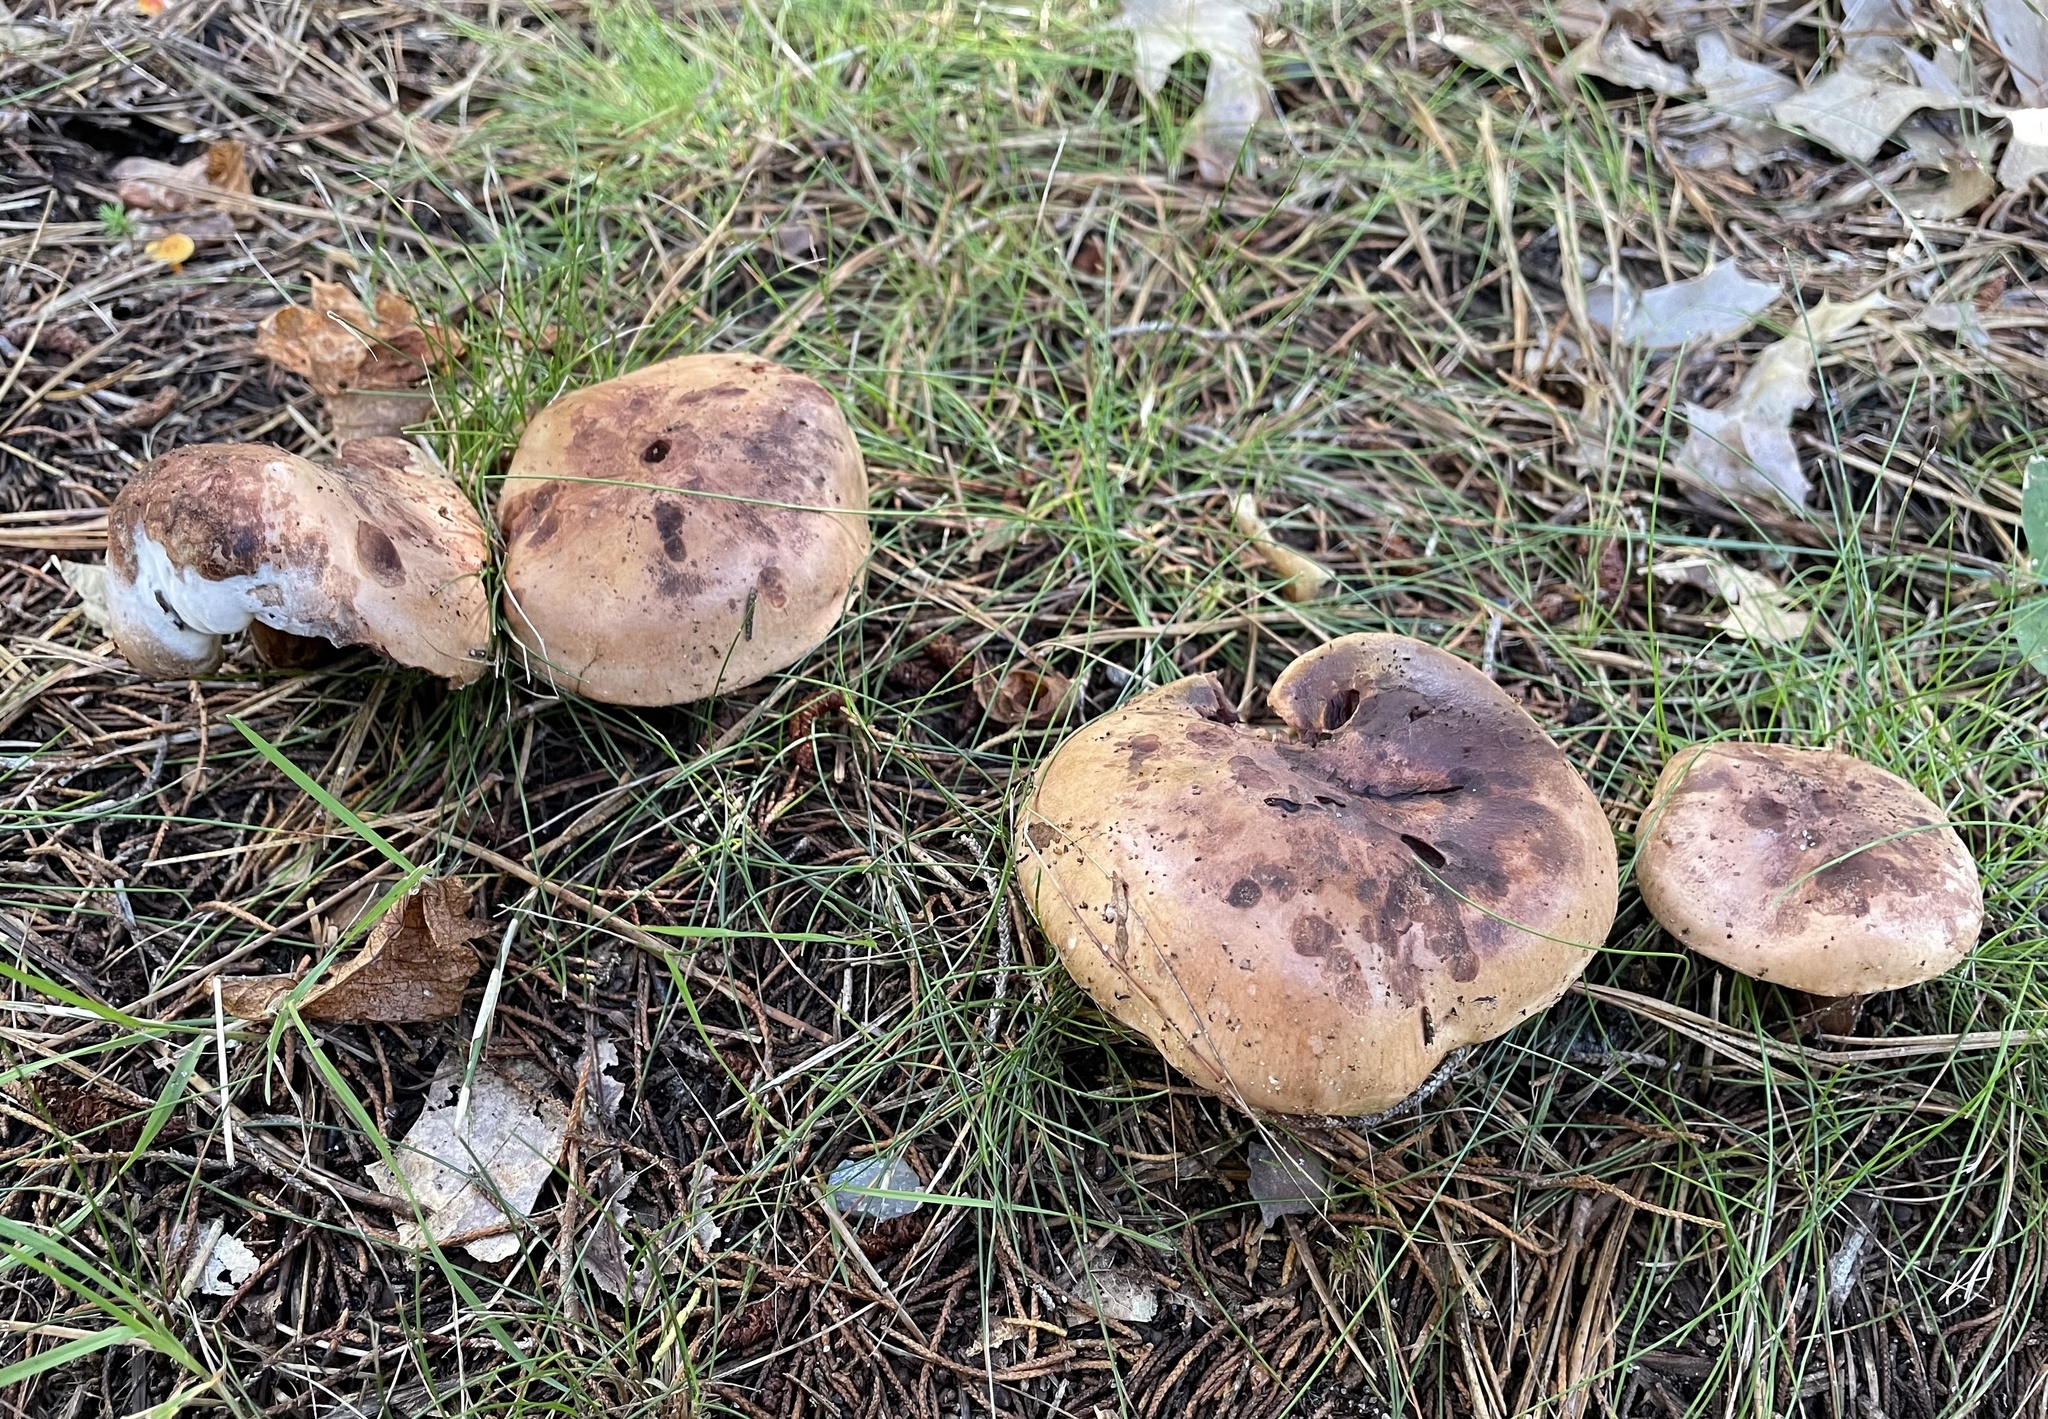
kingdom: Fungi
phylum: Basidiomycota
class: Agaricomycetes
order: Agaricales
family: Tricholomataceae
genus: Tricholoma
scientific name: Tricholoma pessundatum
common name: Tacked knight
